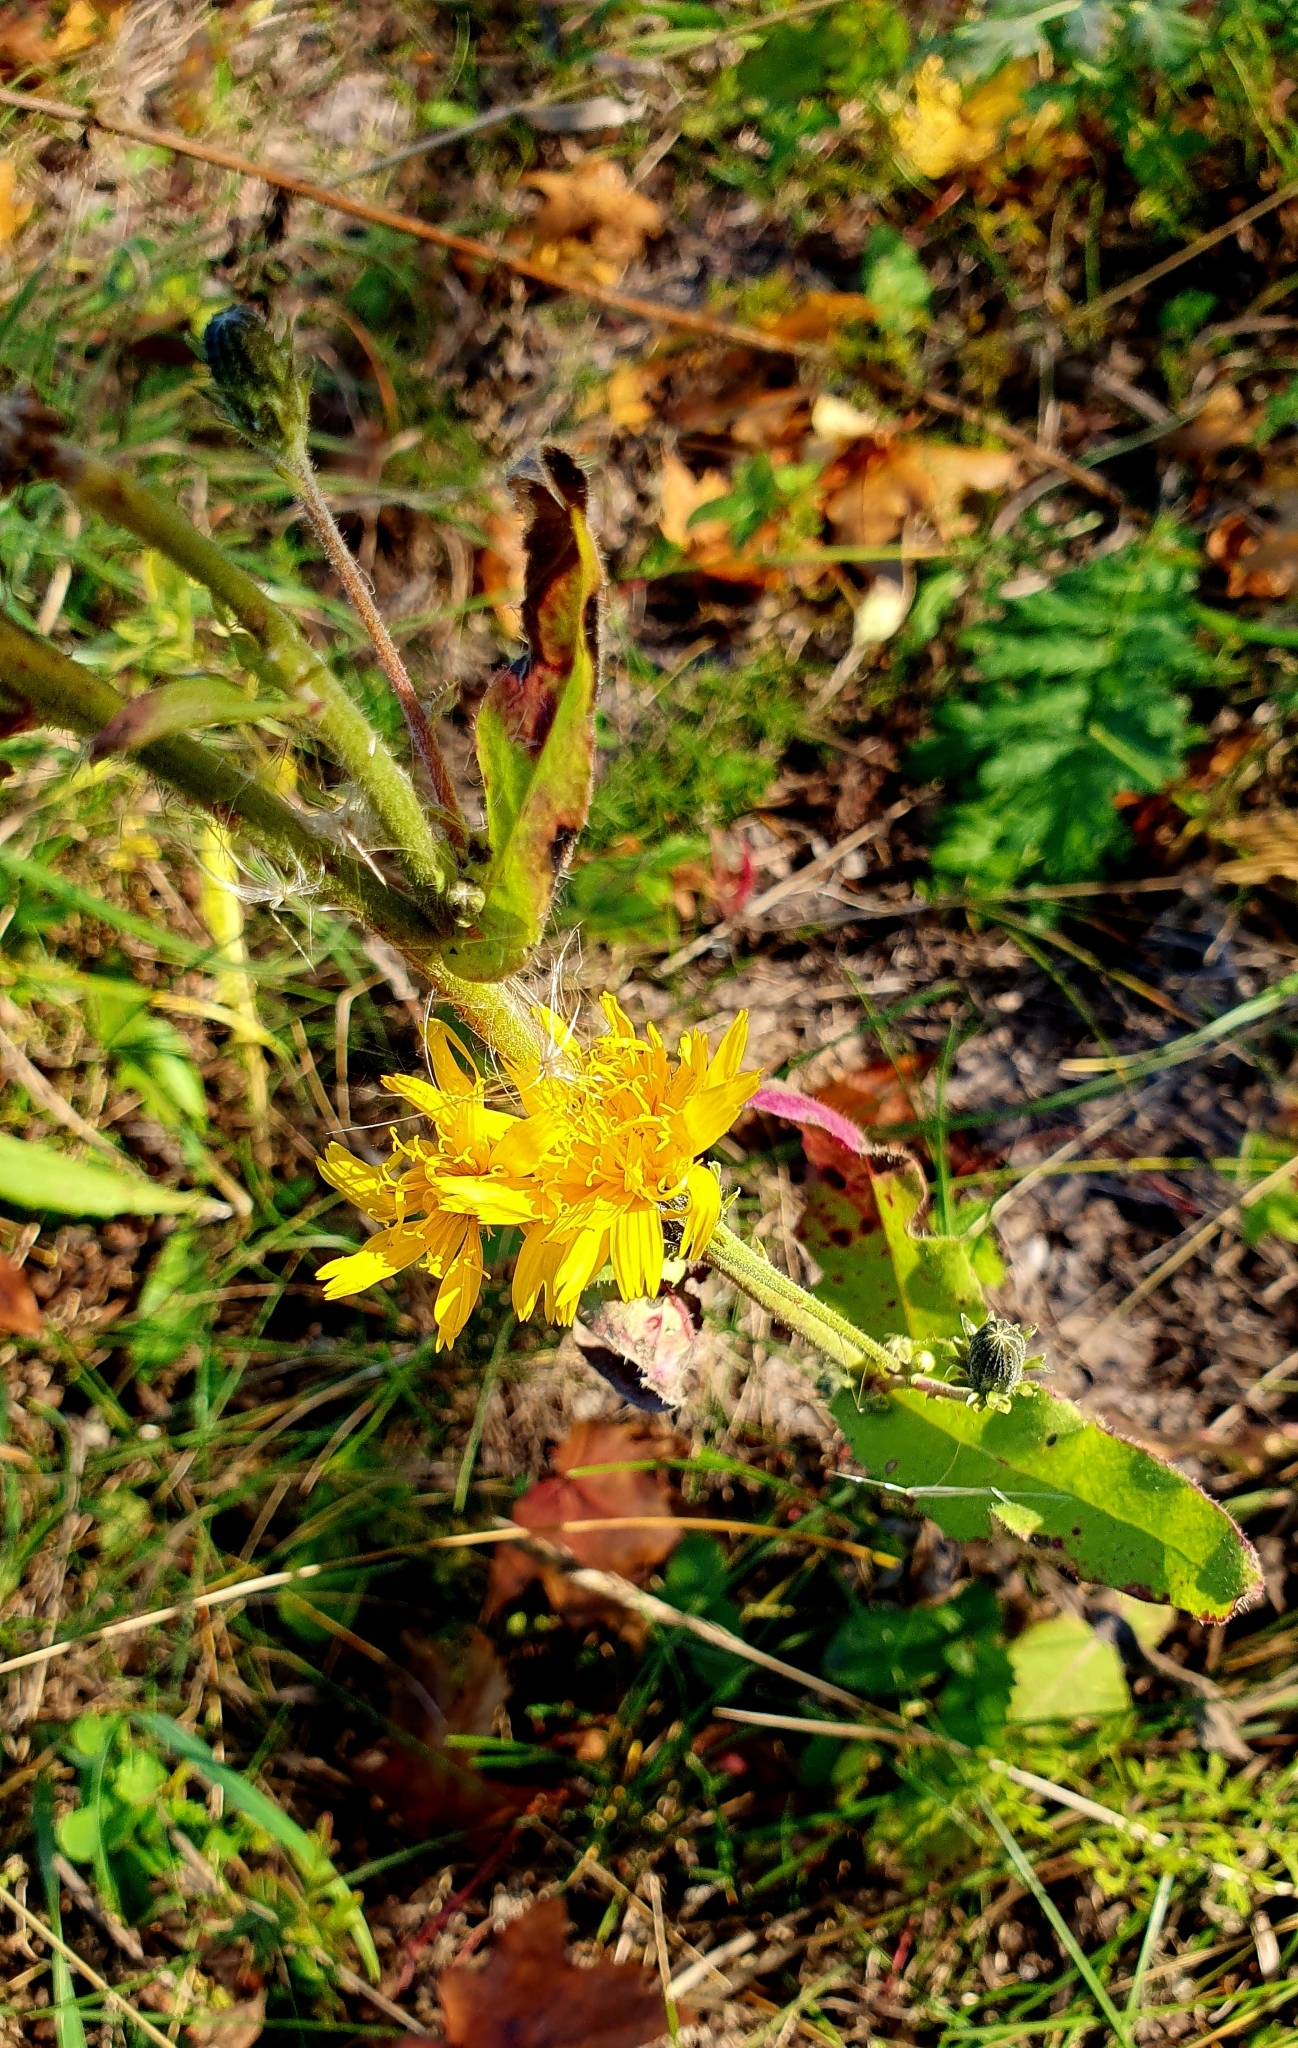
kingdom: Plantae
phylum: Tracheophyta
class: Magnoliopsida
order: Asterales
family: Asteraceae
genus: Picris
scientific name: Picris hieracioides
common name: Hawkweed oxtongue
